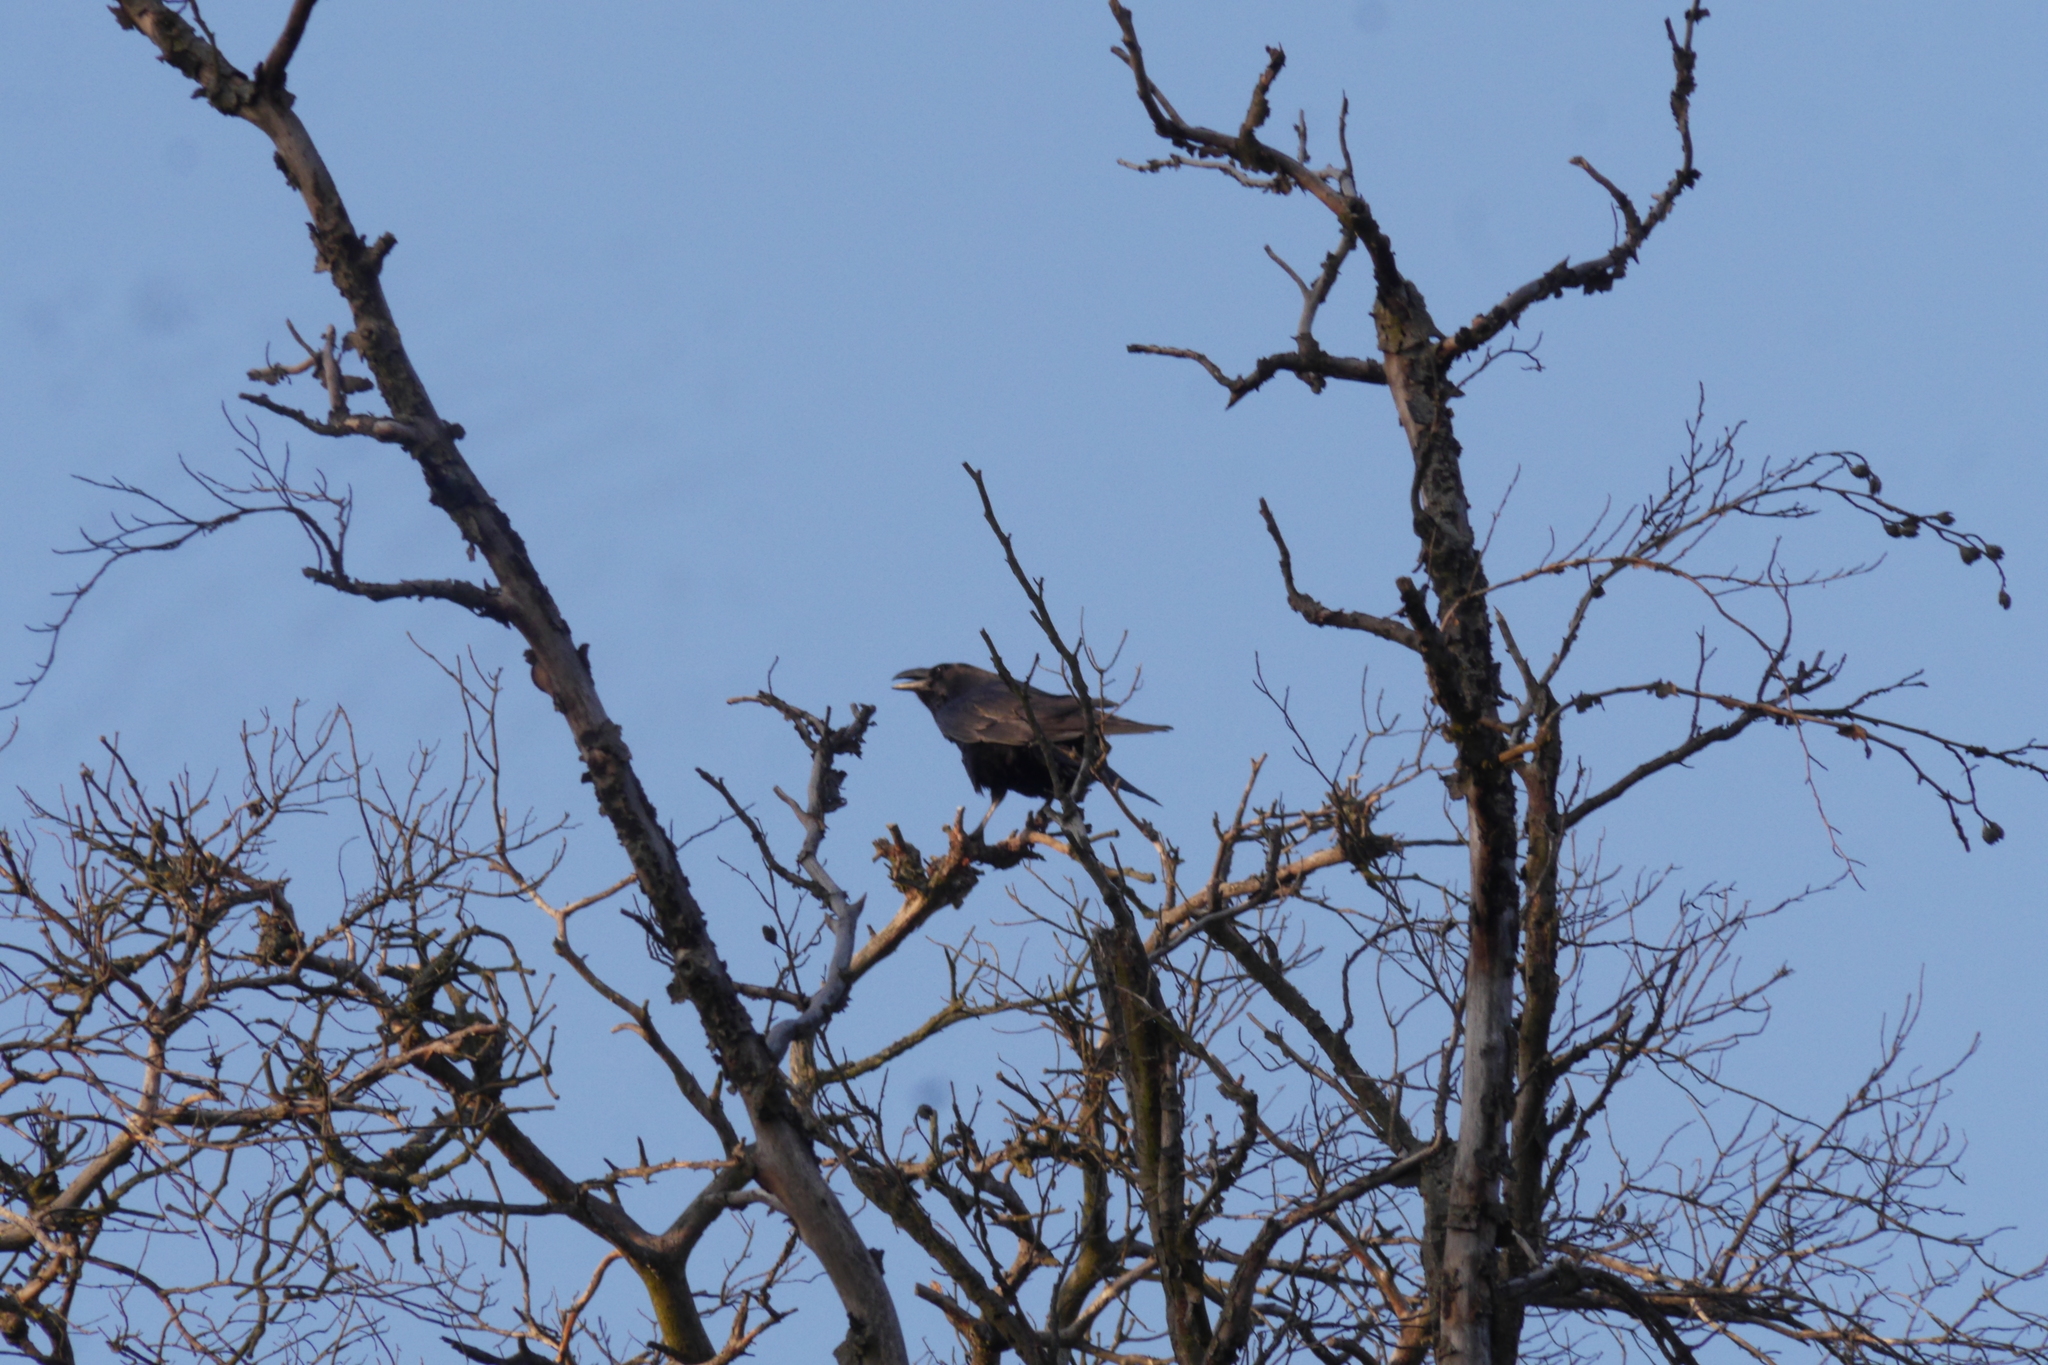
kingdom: Animalia
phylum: Chordata
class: Aves
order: Passeriformes
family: Corvidae
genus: Corvus
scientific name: Corvus corone
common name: Carrion crow
